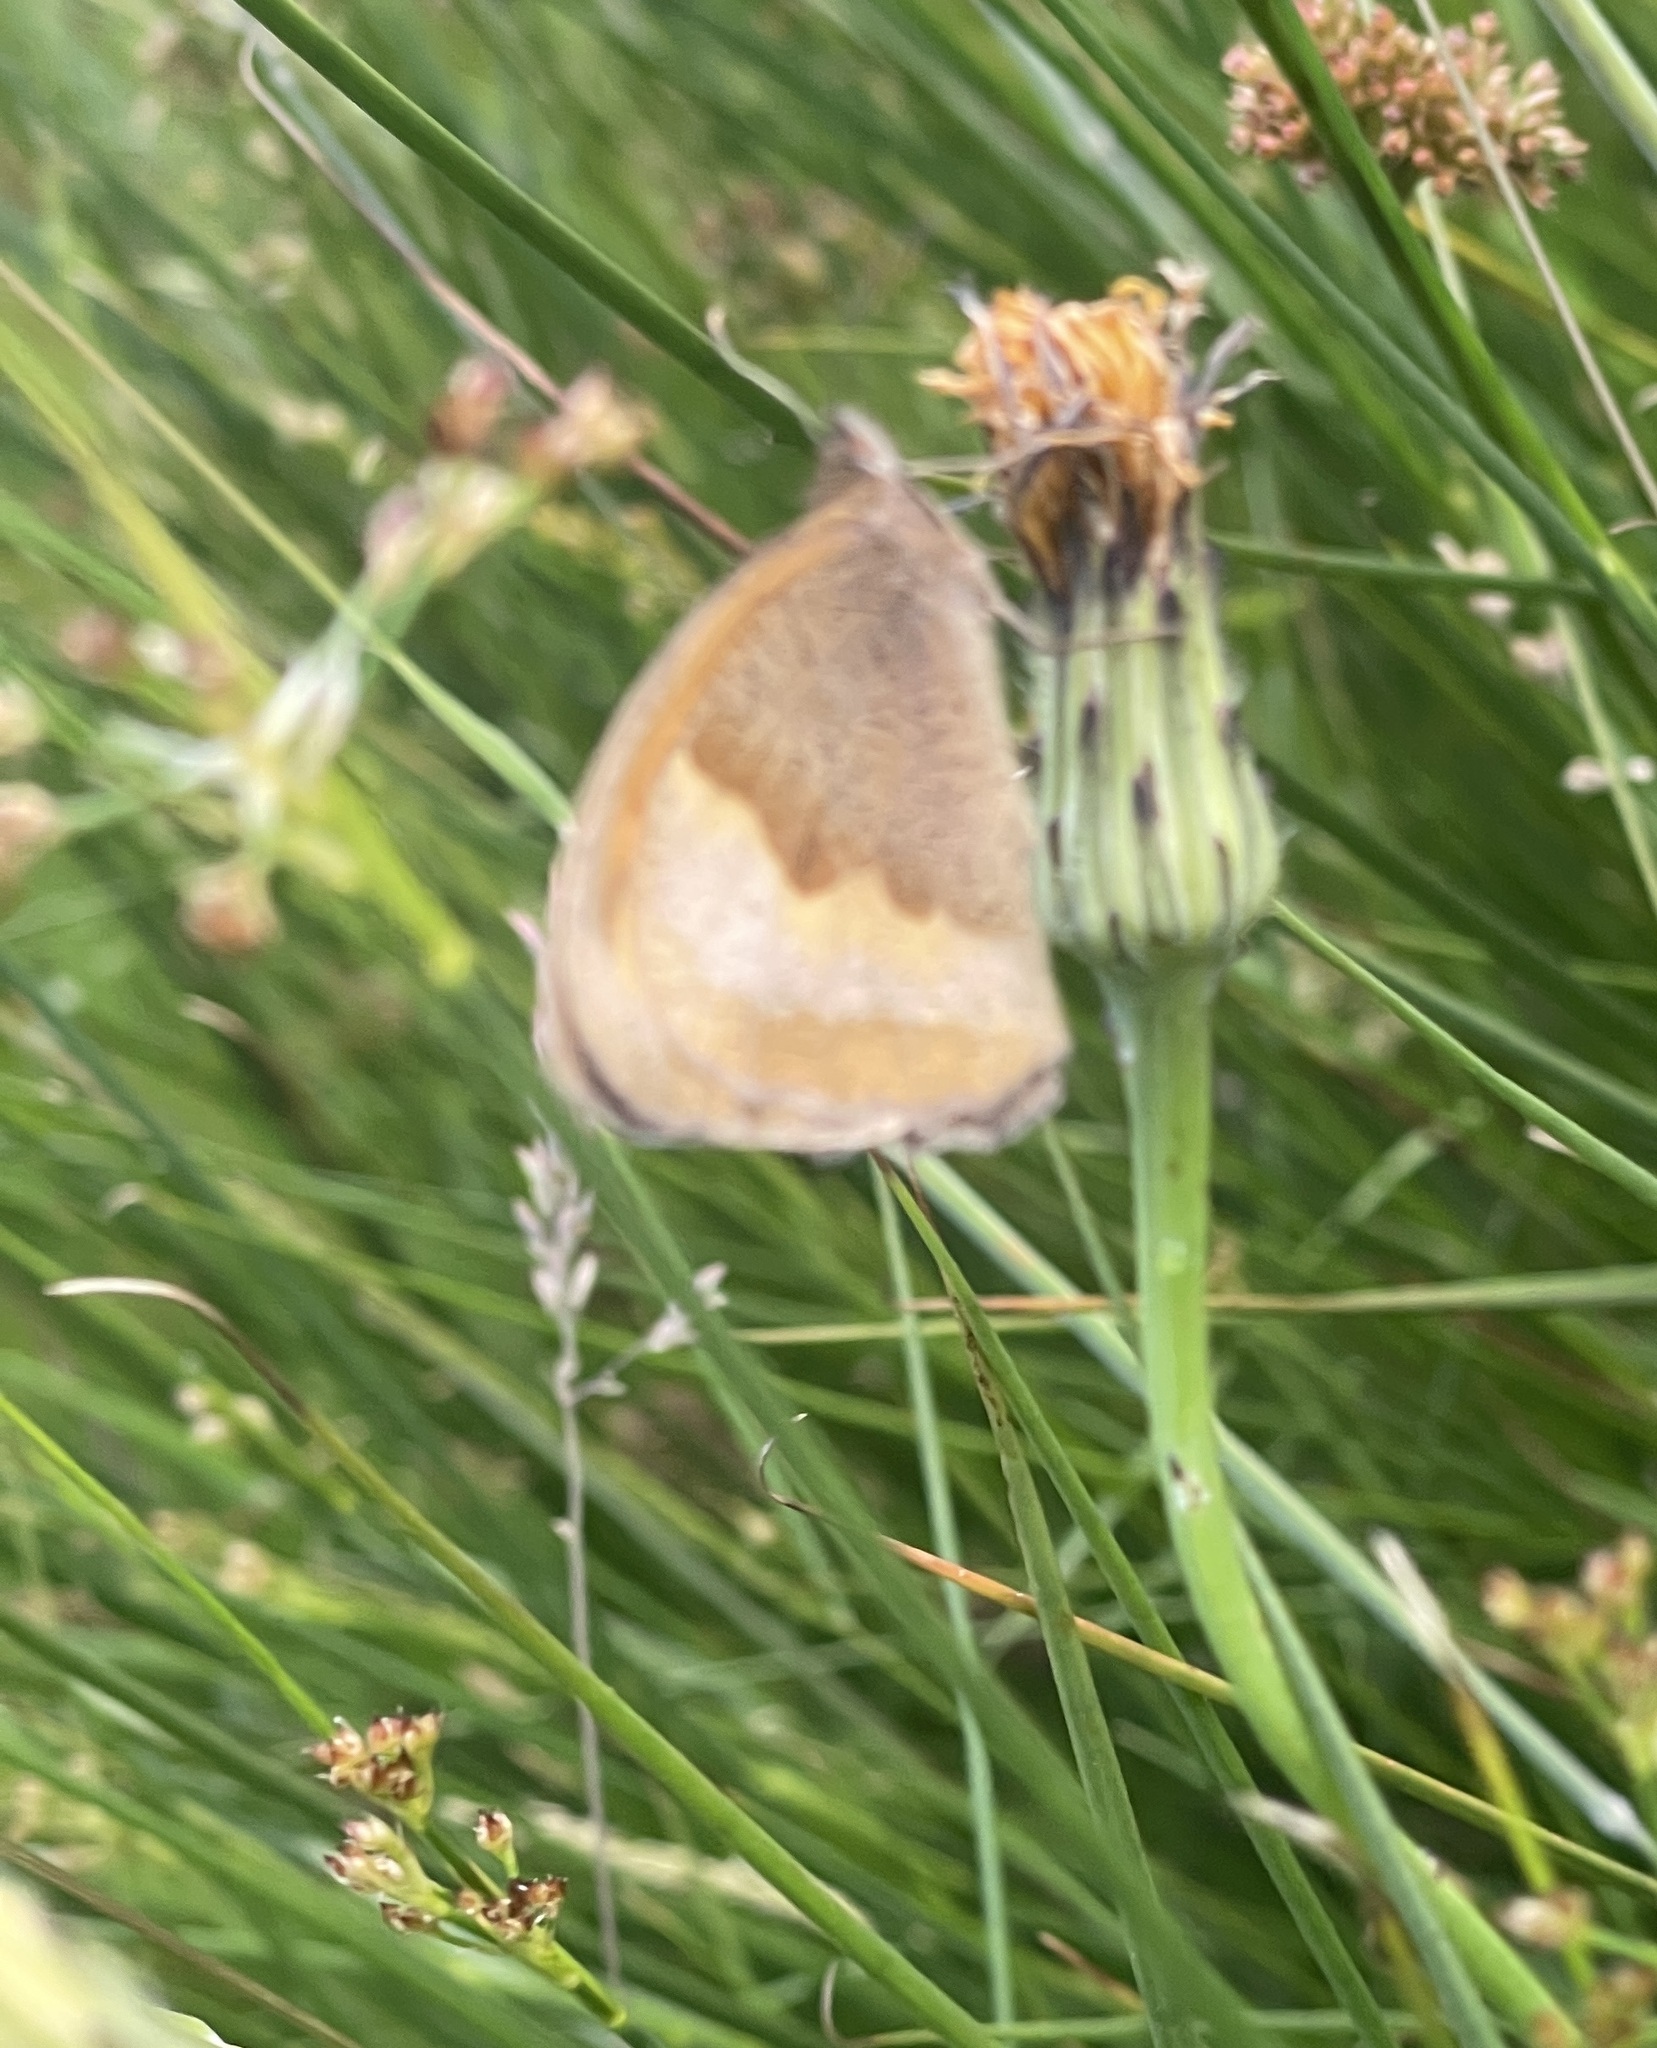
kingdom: Animalia
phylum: Arthropoda
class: Insecta
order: Lepidoptera
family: Nymphalidae
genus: Maniola
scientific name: Maniola jurtina
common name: Meadow brown
